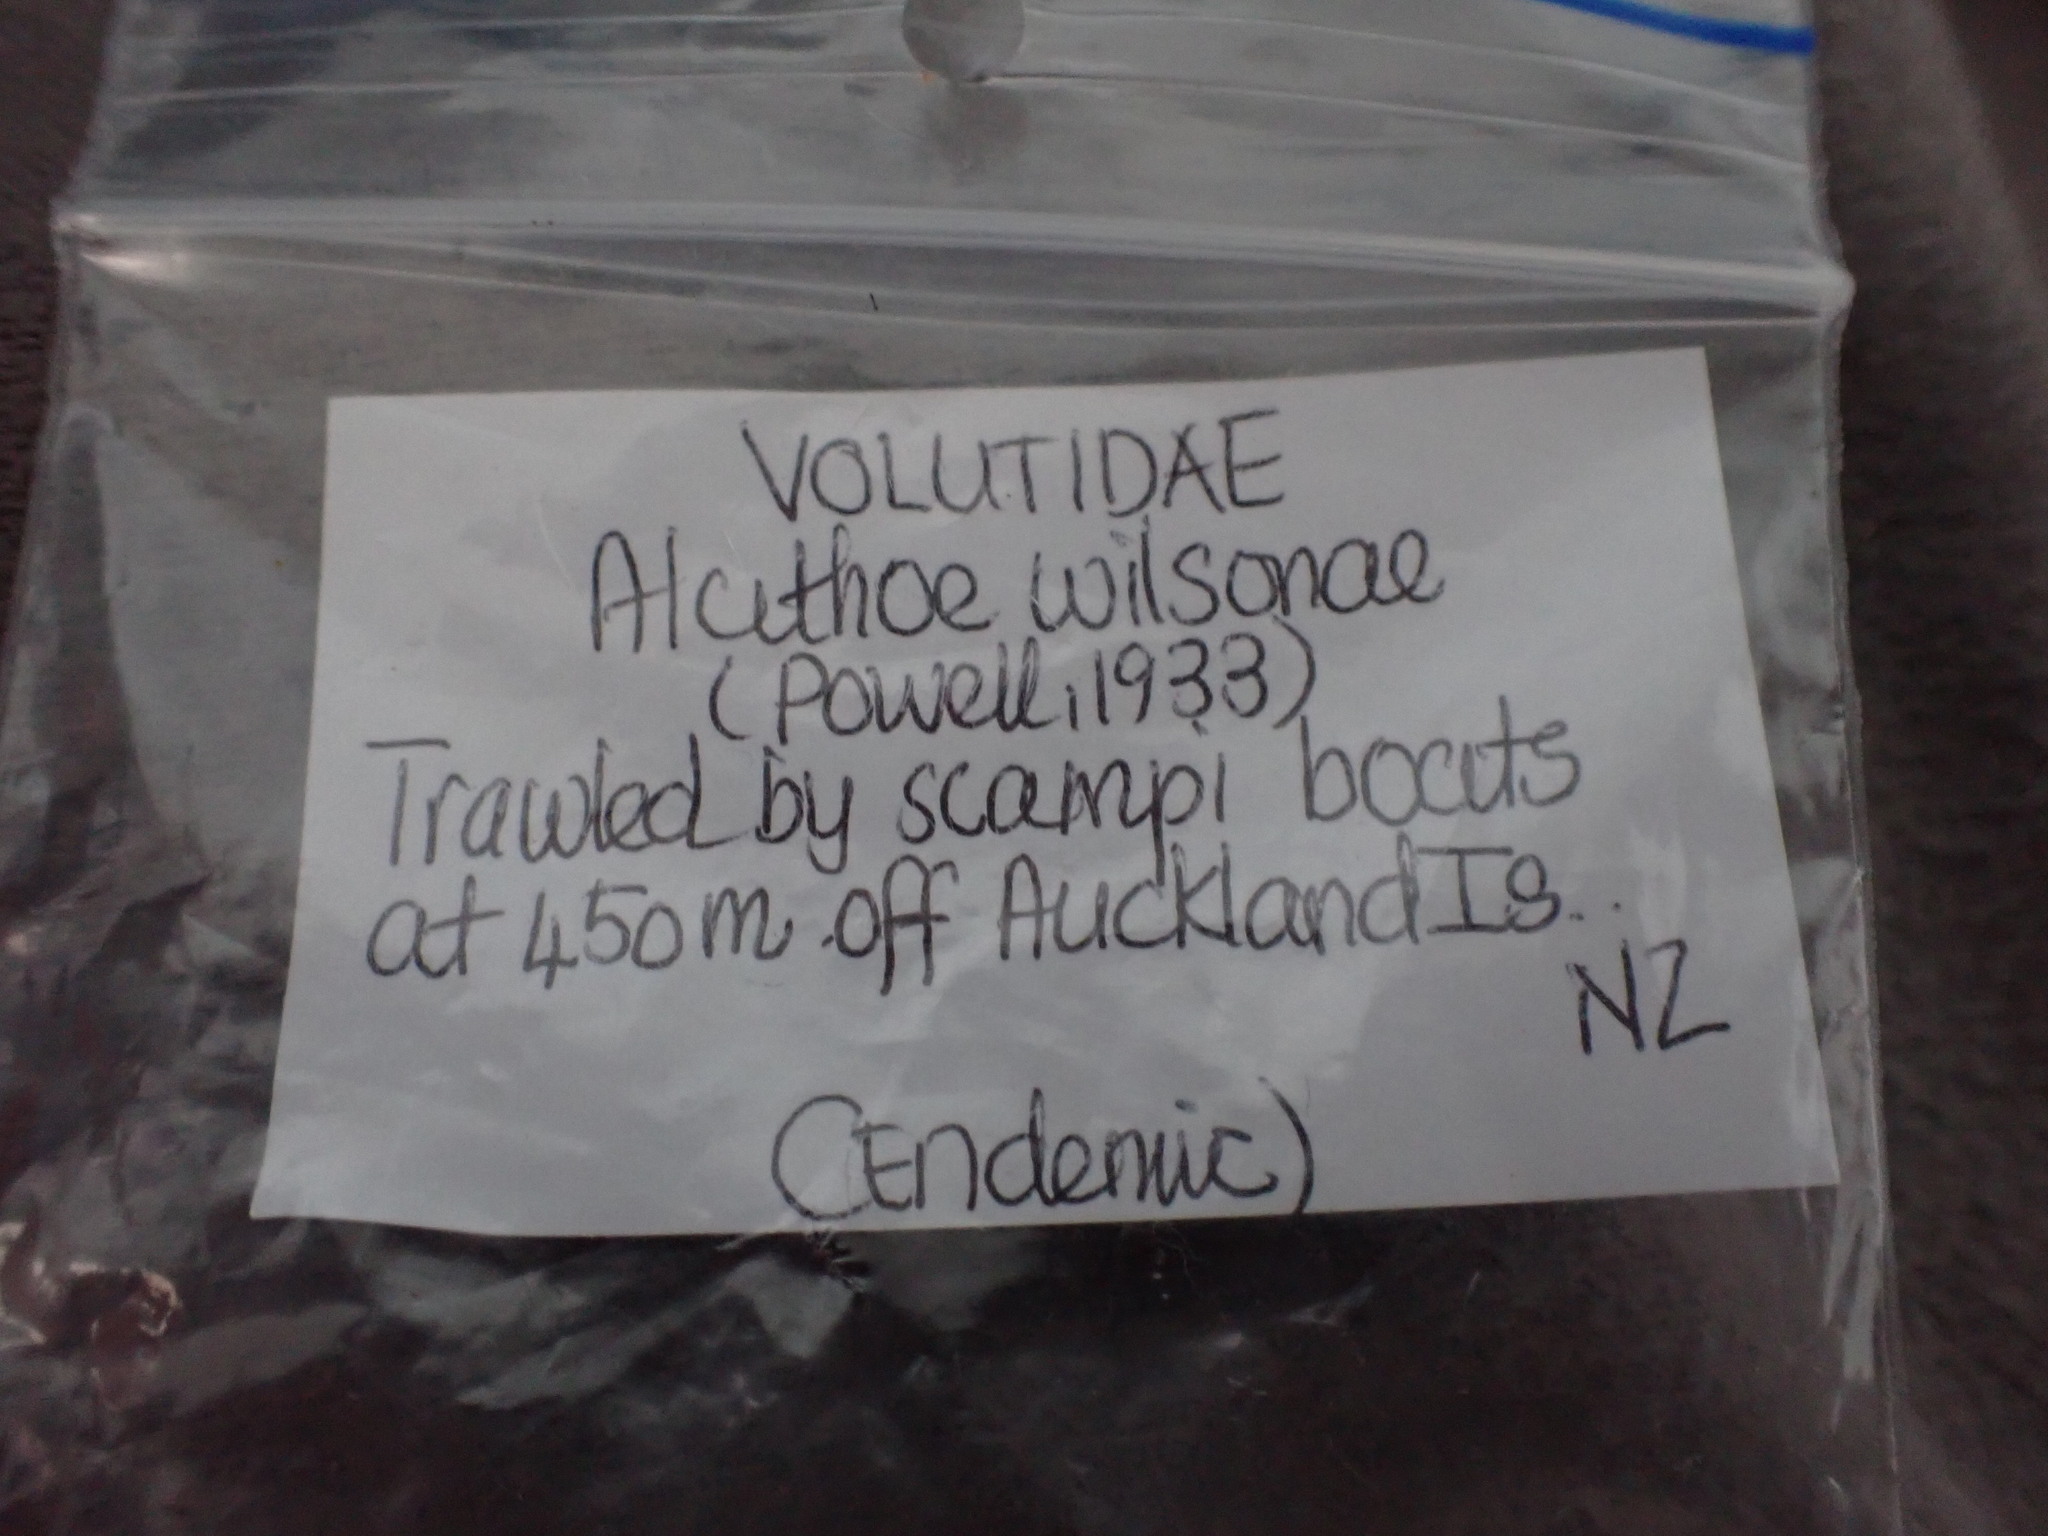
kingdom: Animalia
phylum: Mollusca
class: Gastropoda
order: Neogastropoda
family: Volutidae
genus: Alcithoe
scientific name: Alcithoe wilsonae
